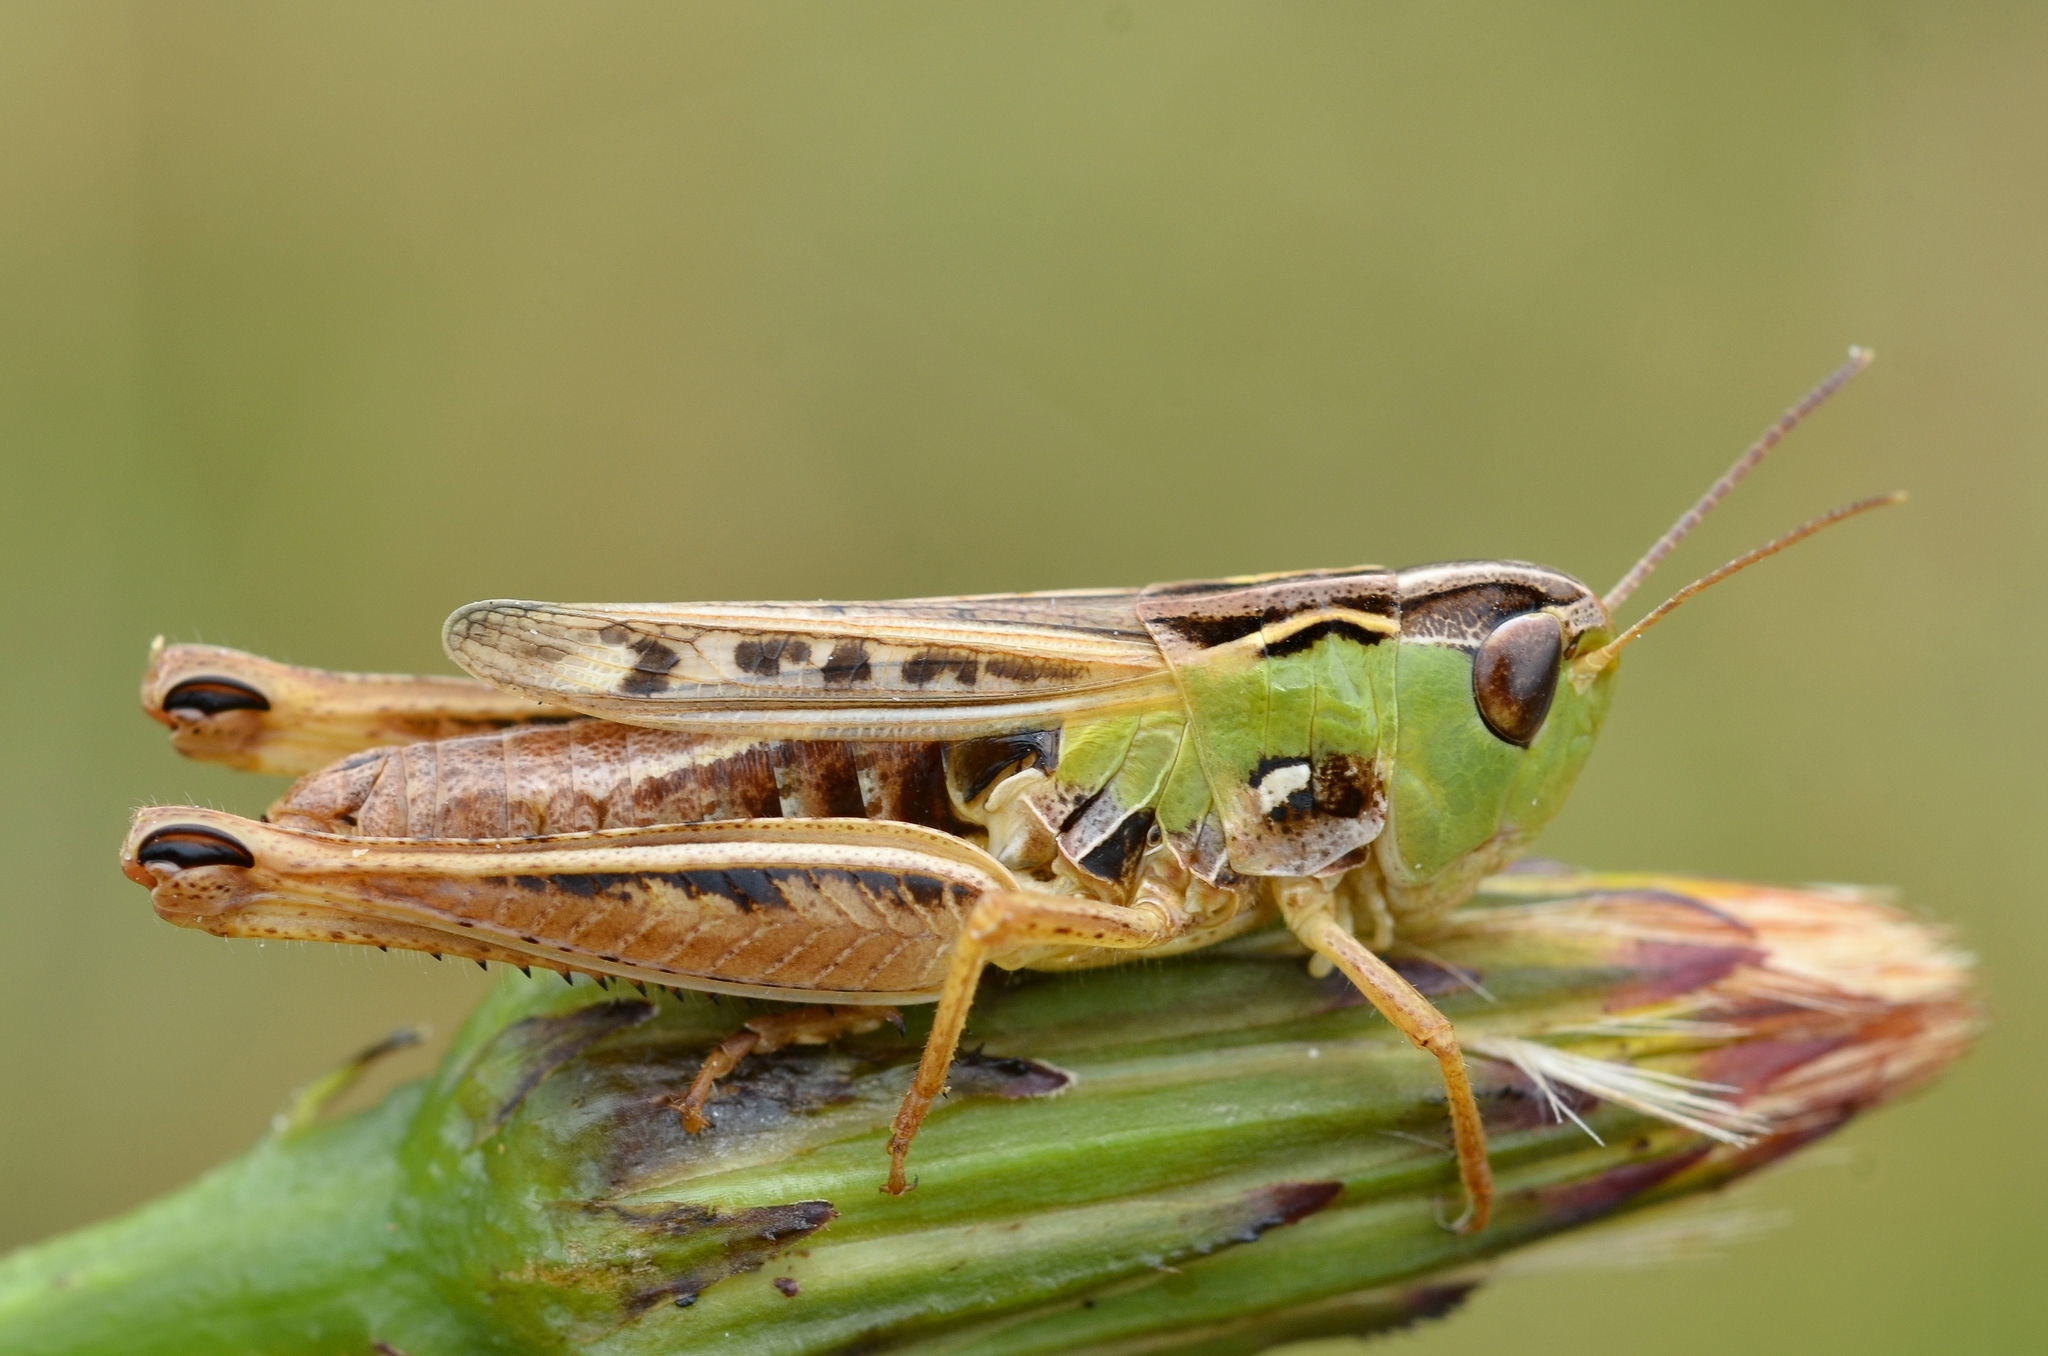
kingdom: Animalia
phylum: Arthropoda
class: Insecta
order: Orthoptera
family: Acrididae
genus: Stenobothrus
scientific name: Stenobothrus nigromaculatus
